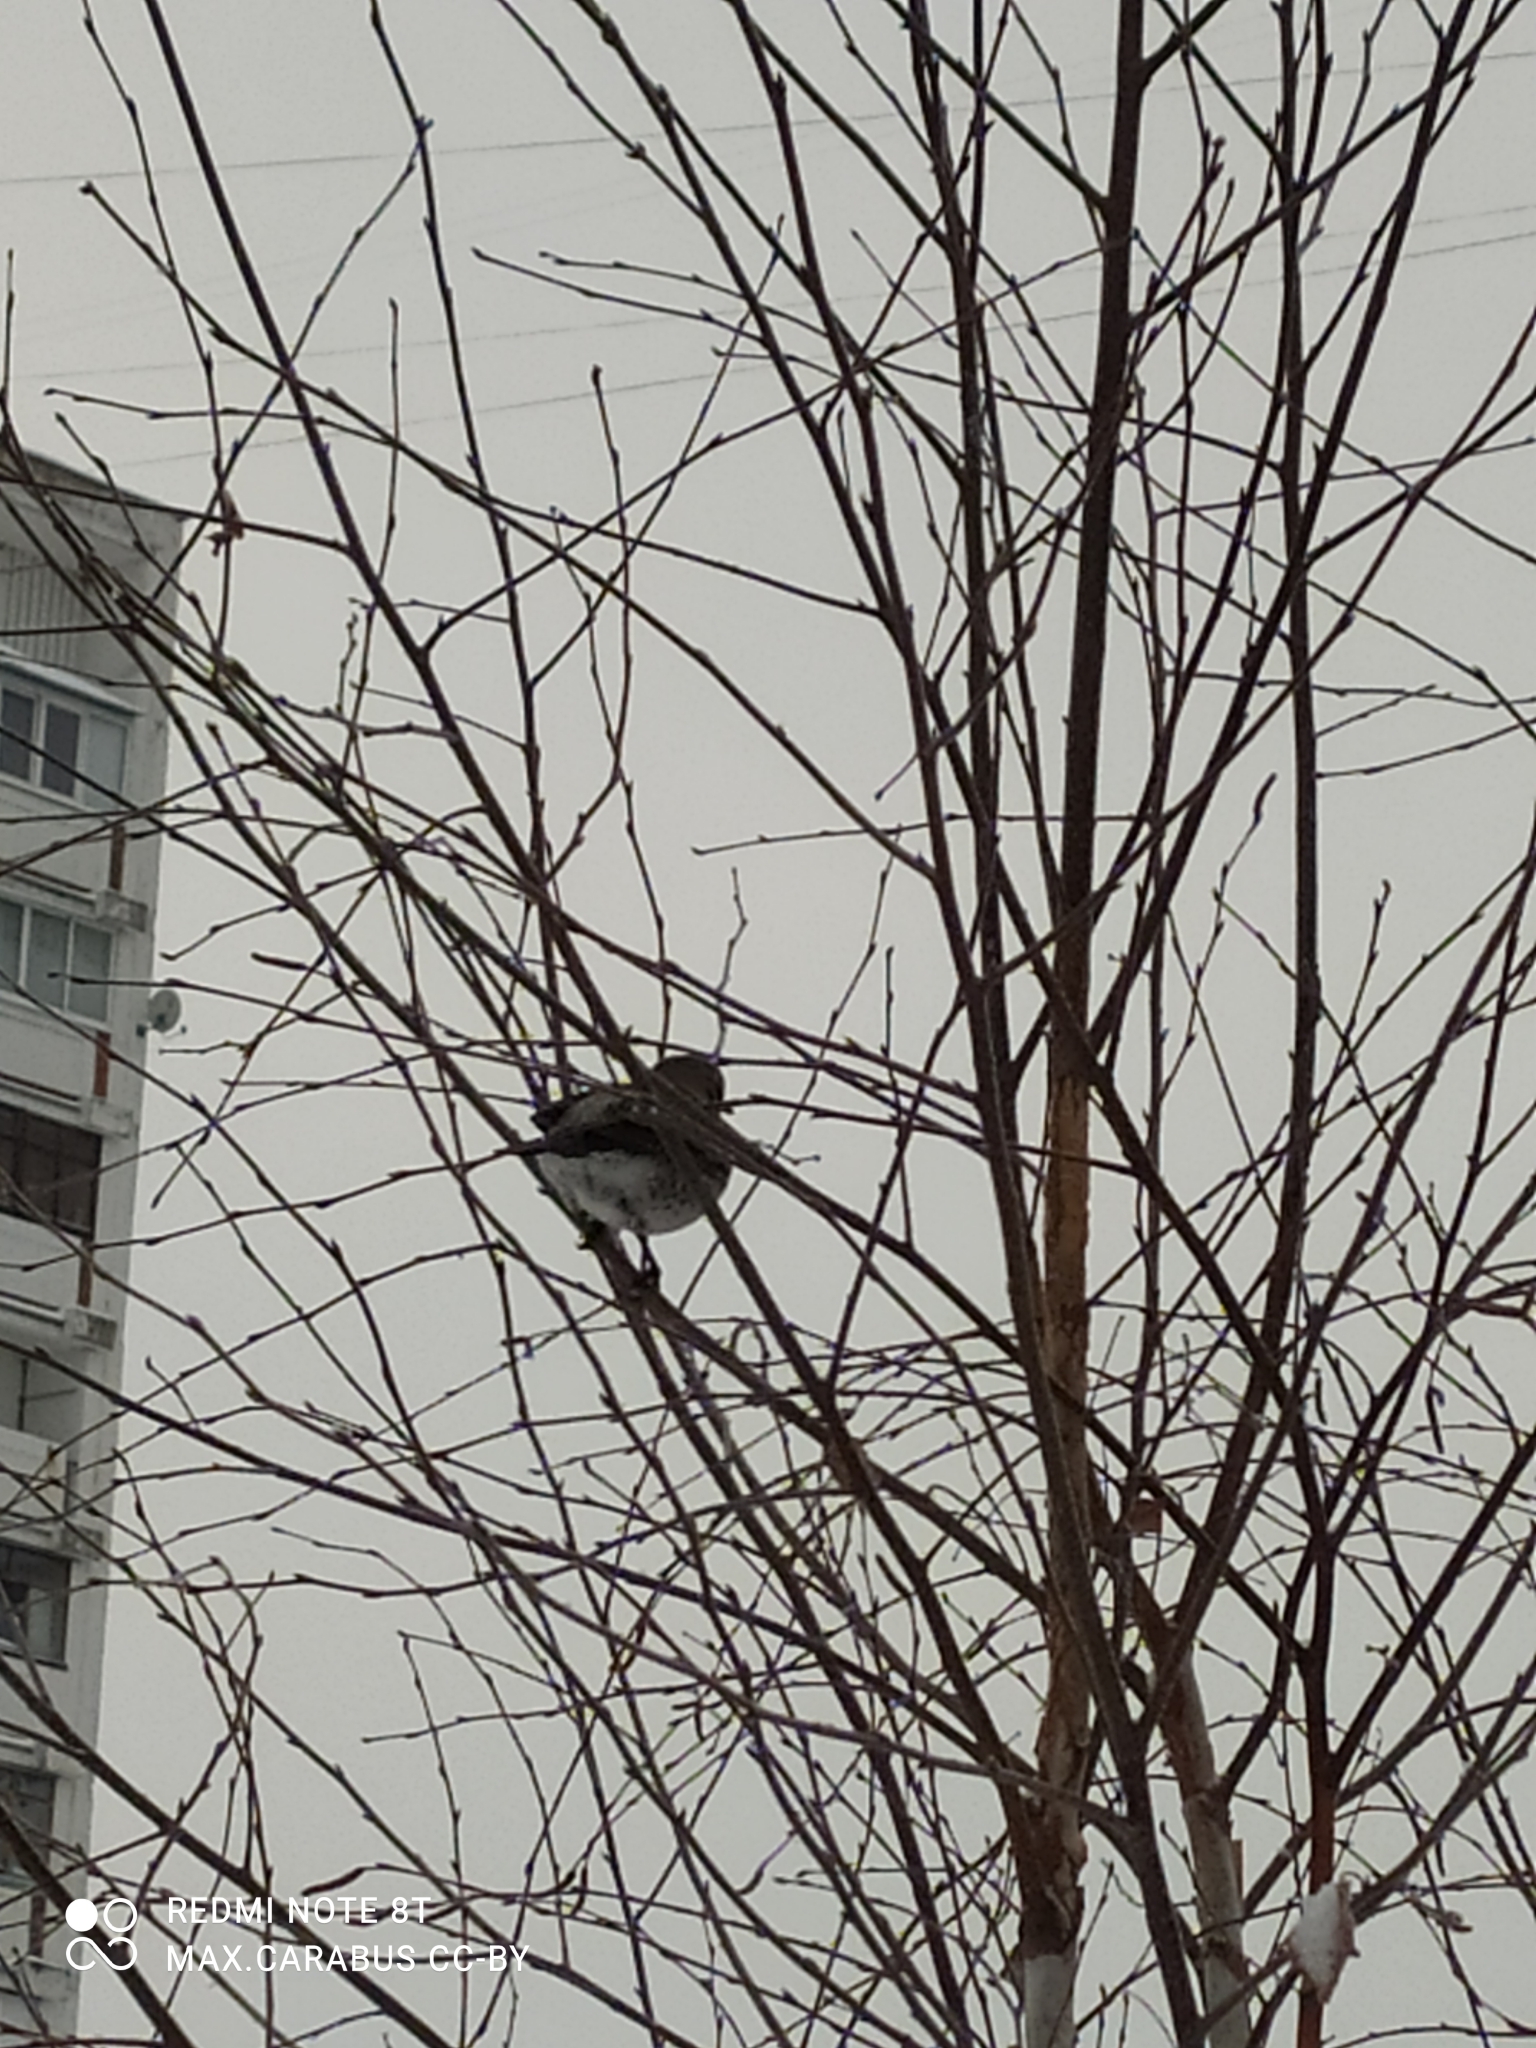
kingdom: Animalia
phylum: Chordata
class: Aves
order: Passeriformes
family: Turdidae
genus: Turdus
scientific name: Turdus pilaris
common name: Fieldfare
